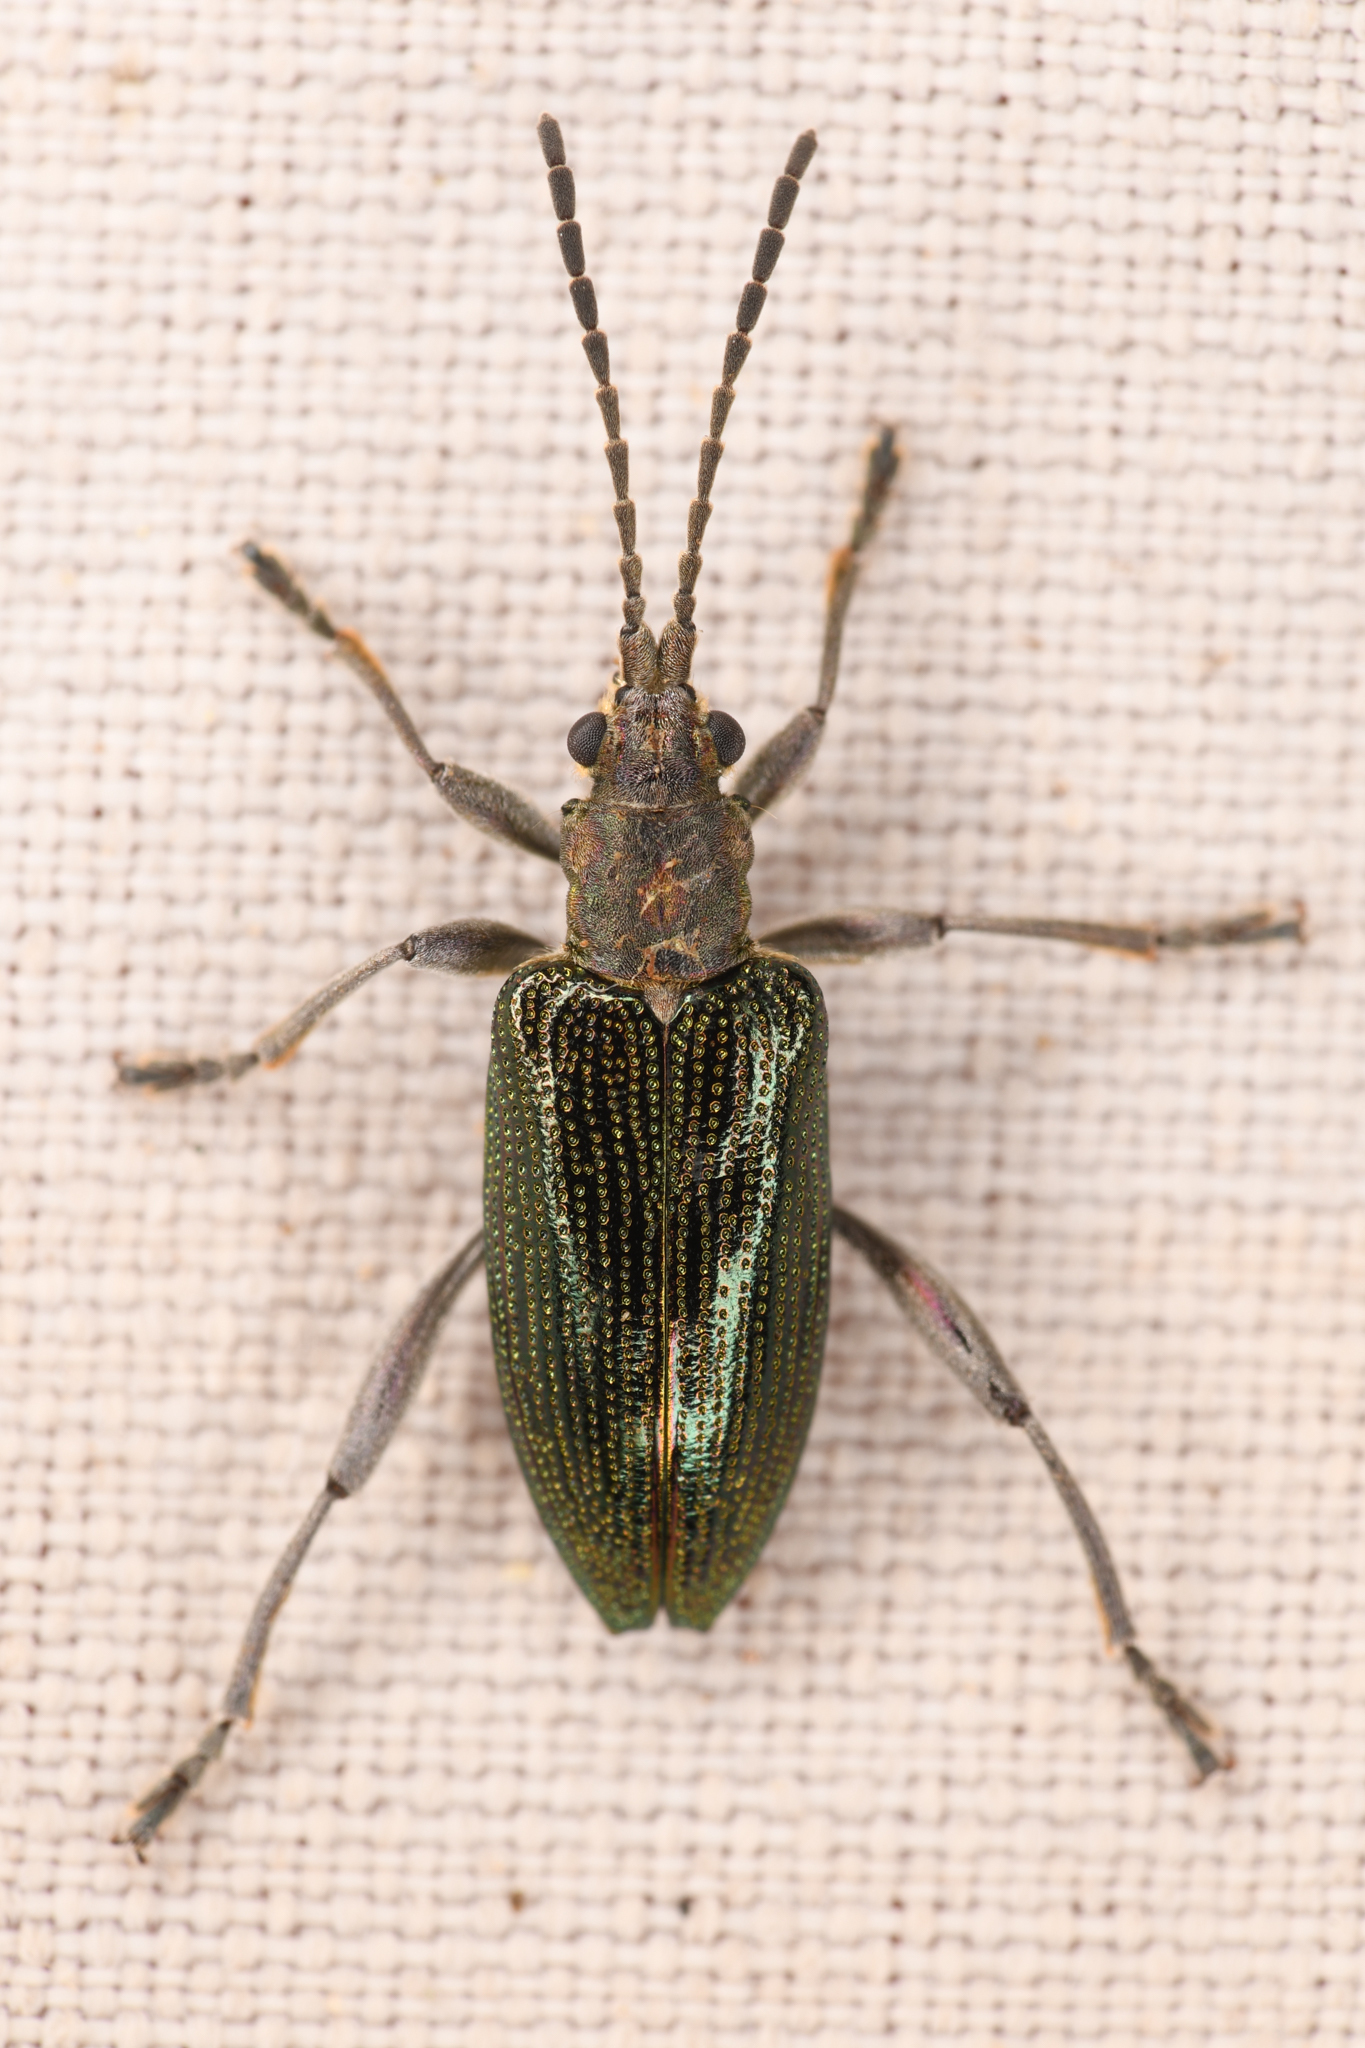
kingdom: Animalia
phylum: Arthropoda
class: Insecta
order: Coleoptera
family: Chrysomelidae
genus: Donacia
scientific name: Donacia hirticollis
